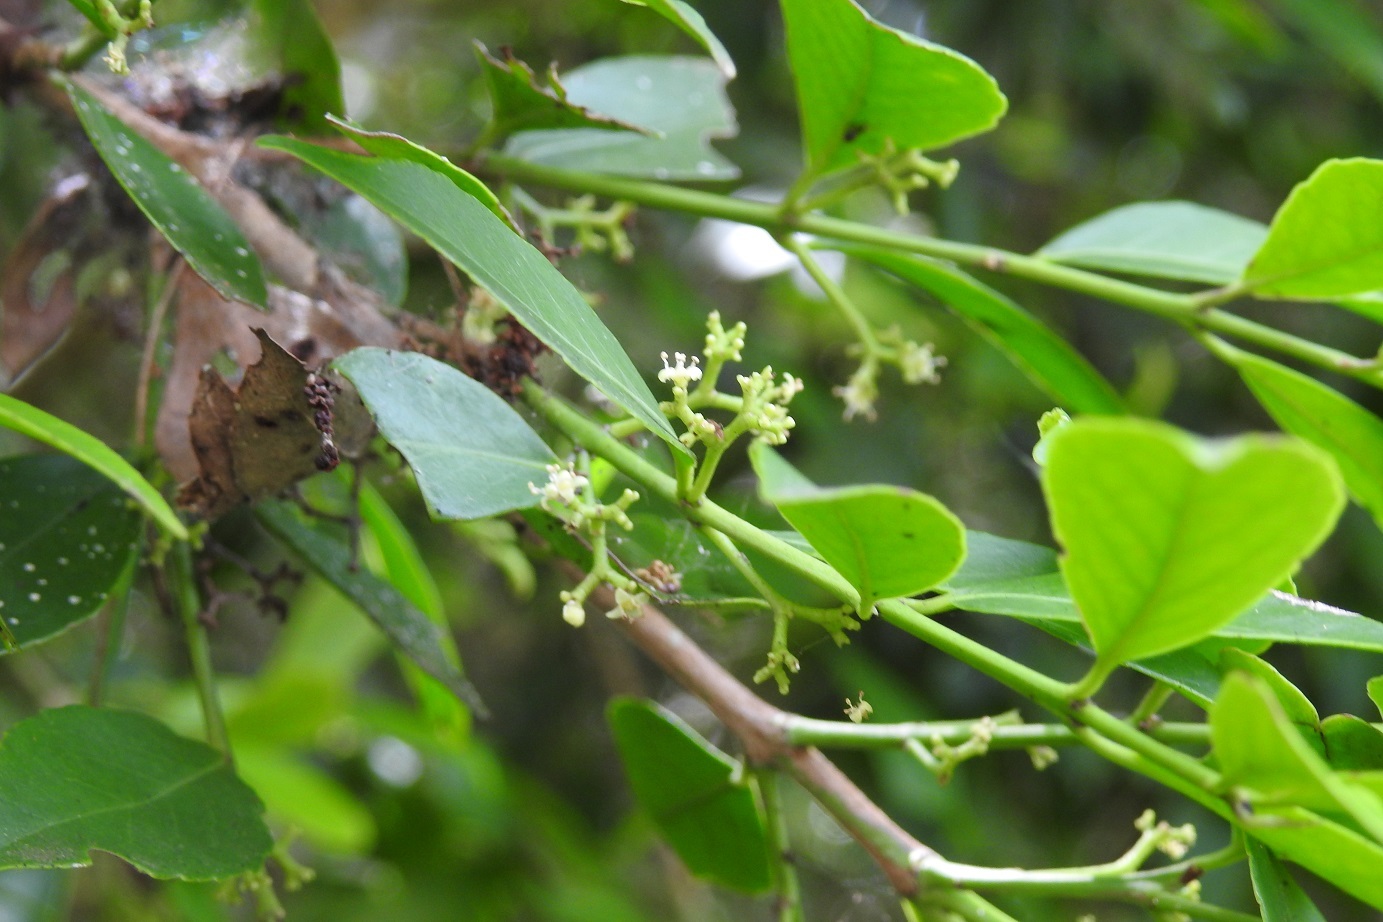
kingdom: Plantae
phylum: Tracheophyta
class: Magnoliopsida
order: Celastrales
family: Celastraceae
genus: Gyminda
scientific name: Gyminda tonduzii
